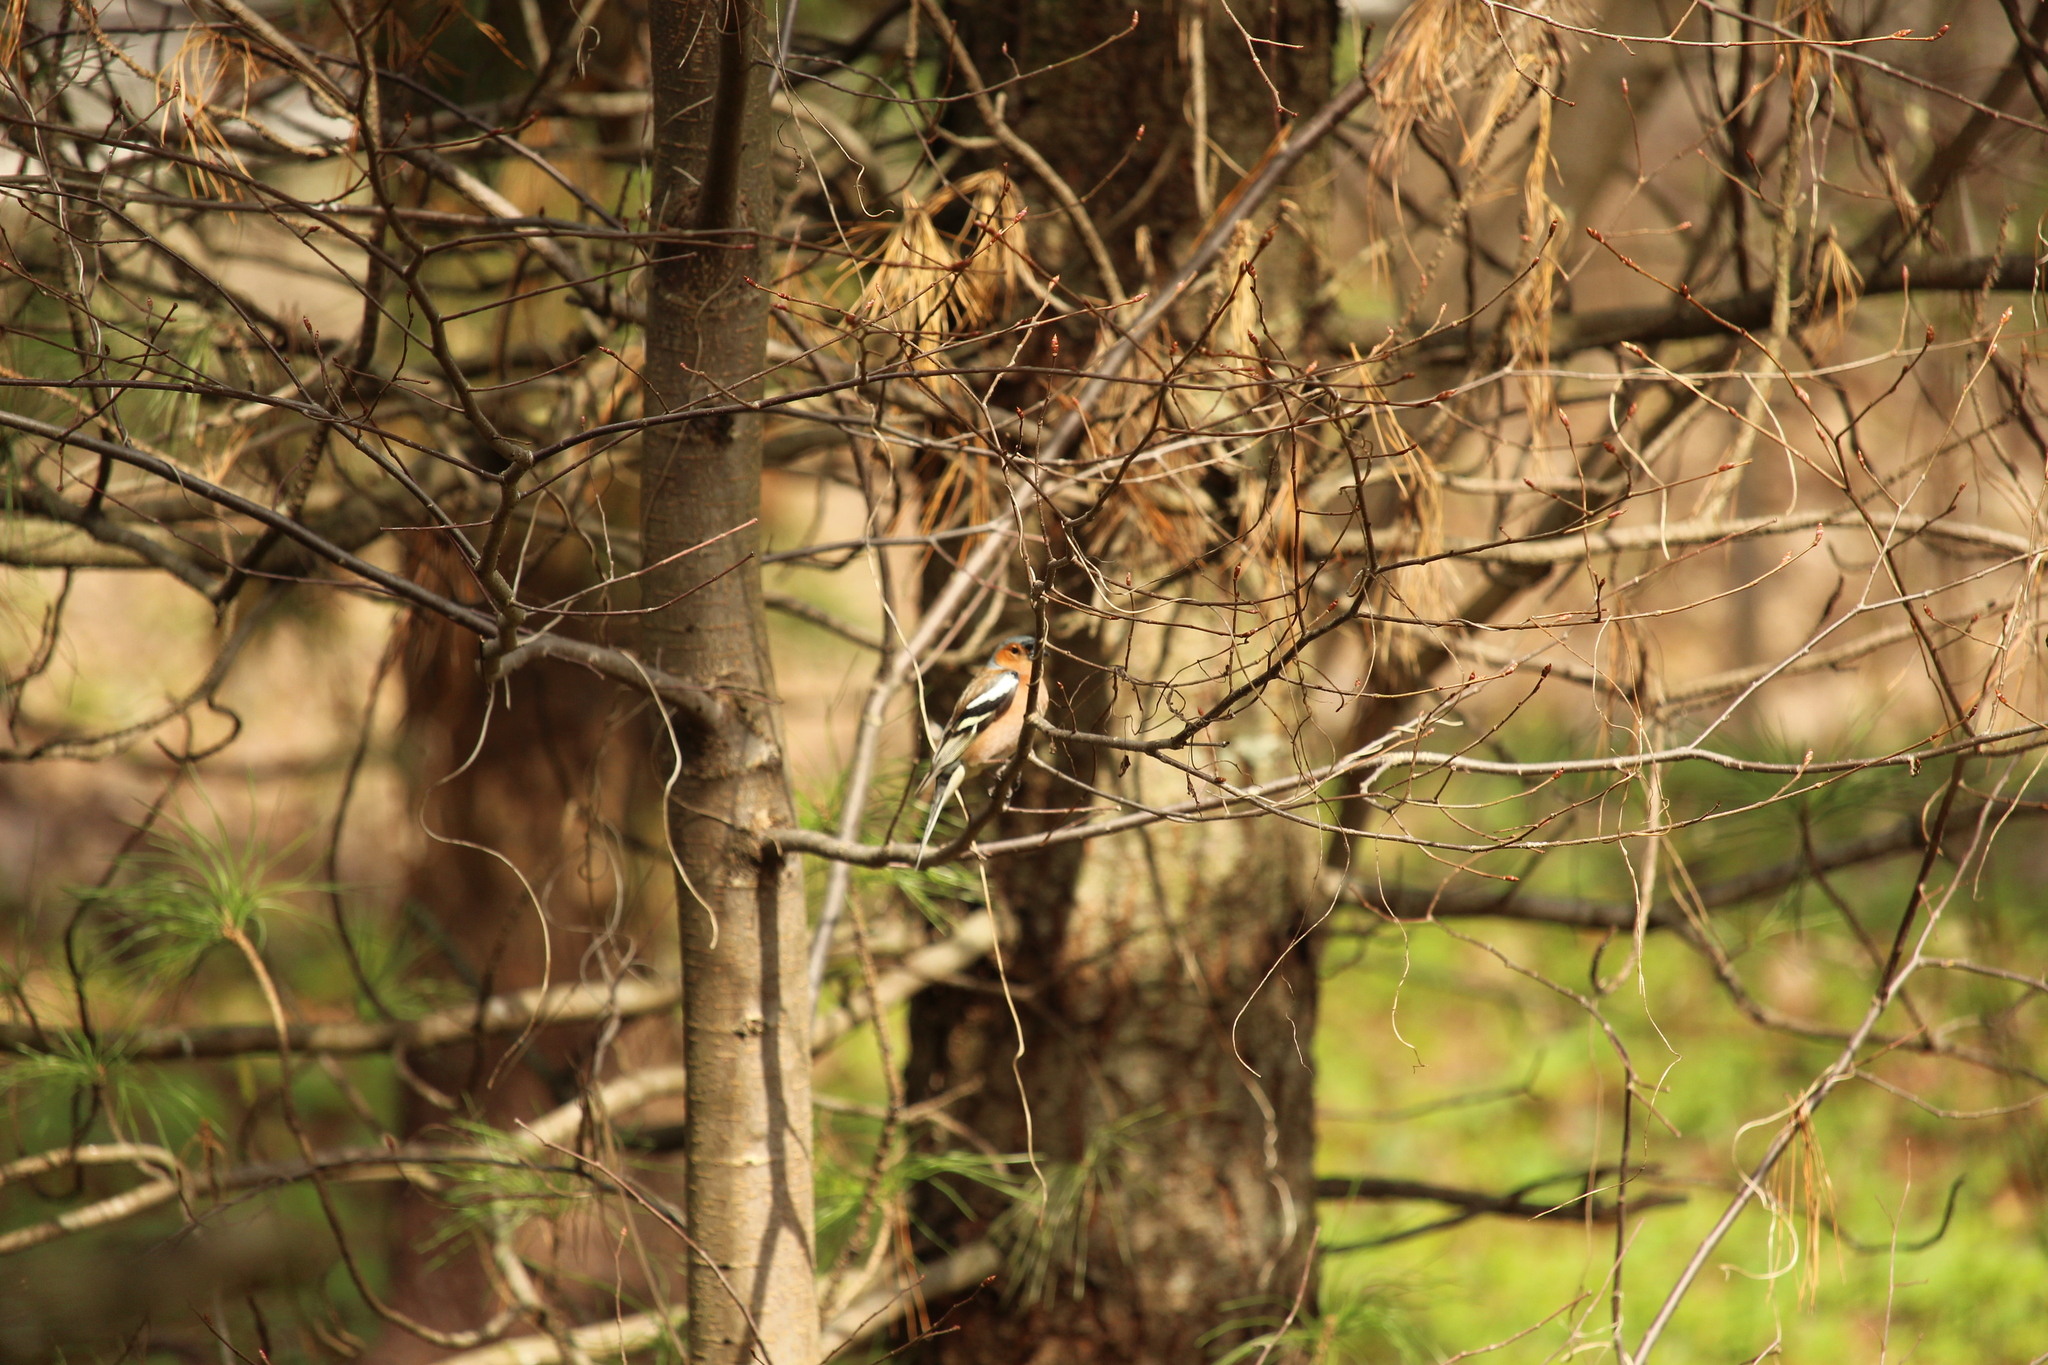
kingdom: Animalia
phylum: Chordata
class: Aves
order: Passeriformes
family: Fringillidae
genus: Fringilla
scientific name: Fringilla coelebs
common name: Common chaffinch
